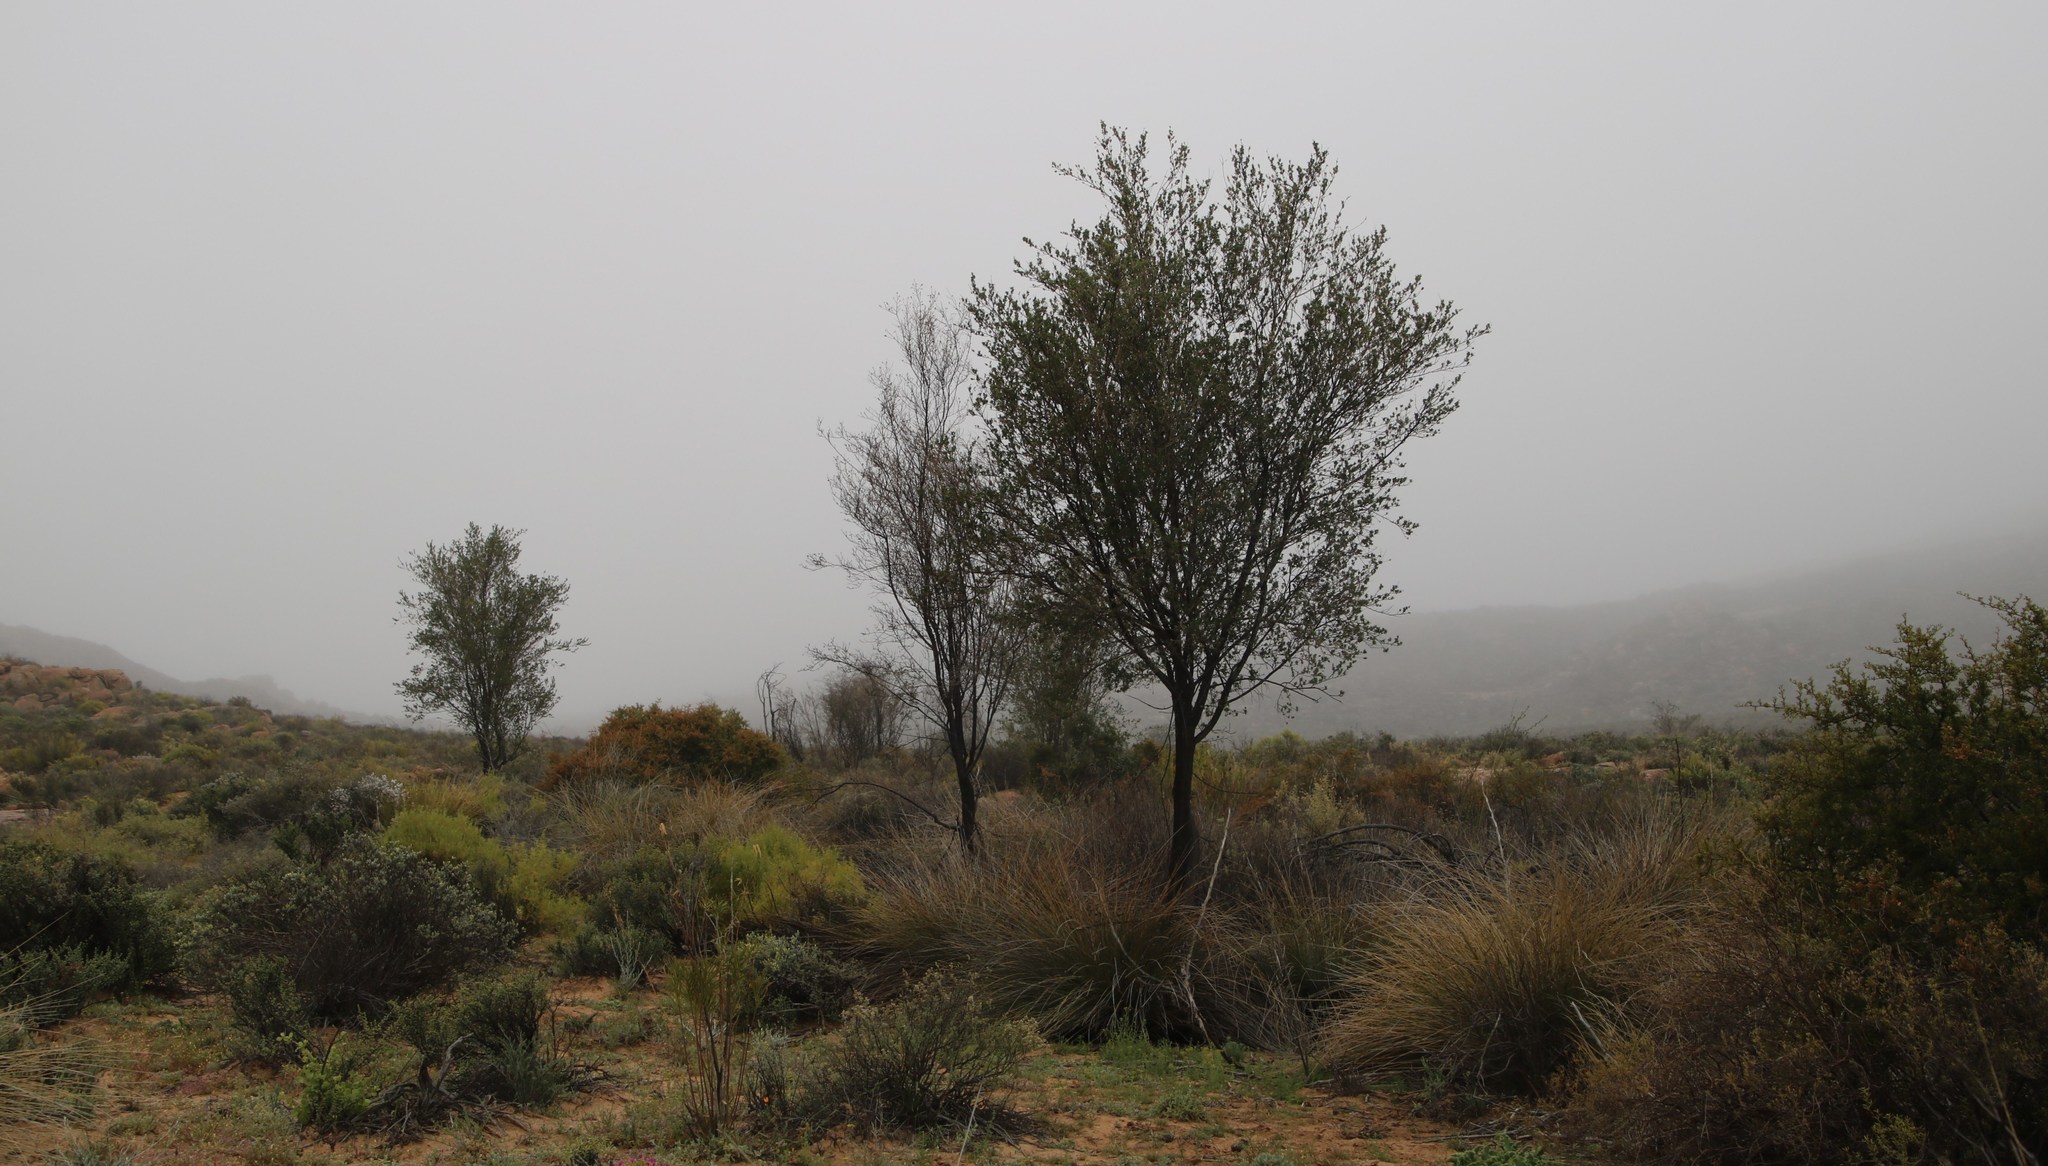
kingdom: Plantae
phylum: Tracheophyta
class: Magnoliopsida
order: Fabales
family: Fabaceae
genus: Psoralea
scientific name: Psoralea arborescens
